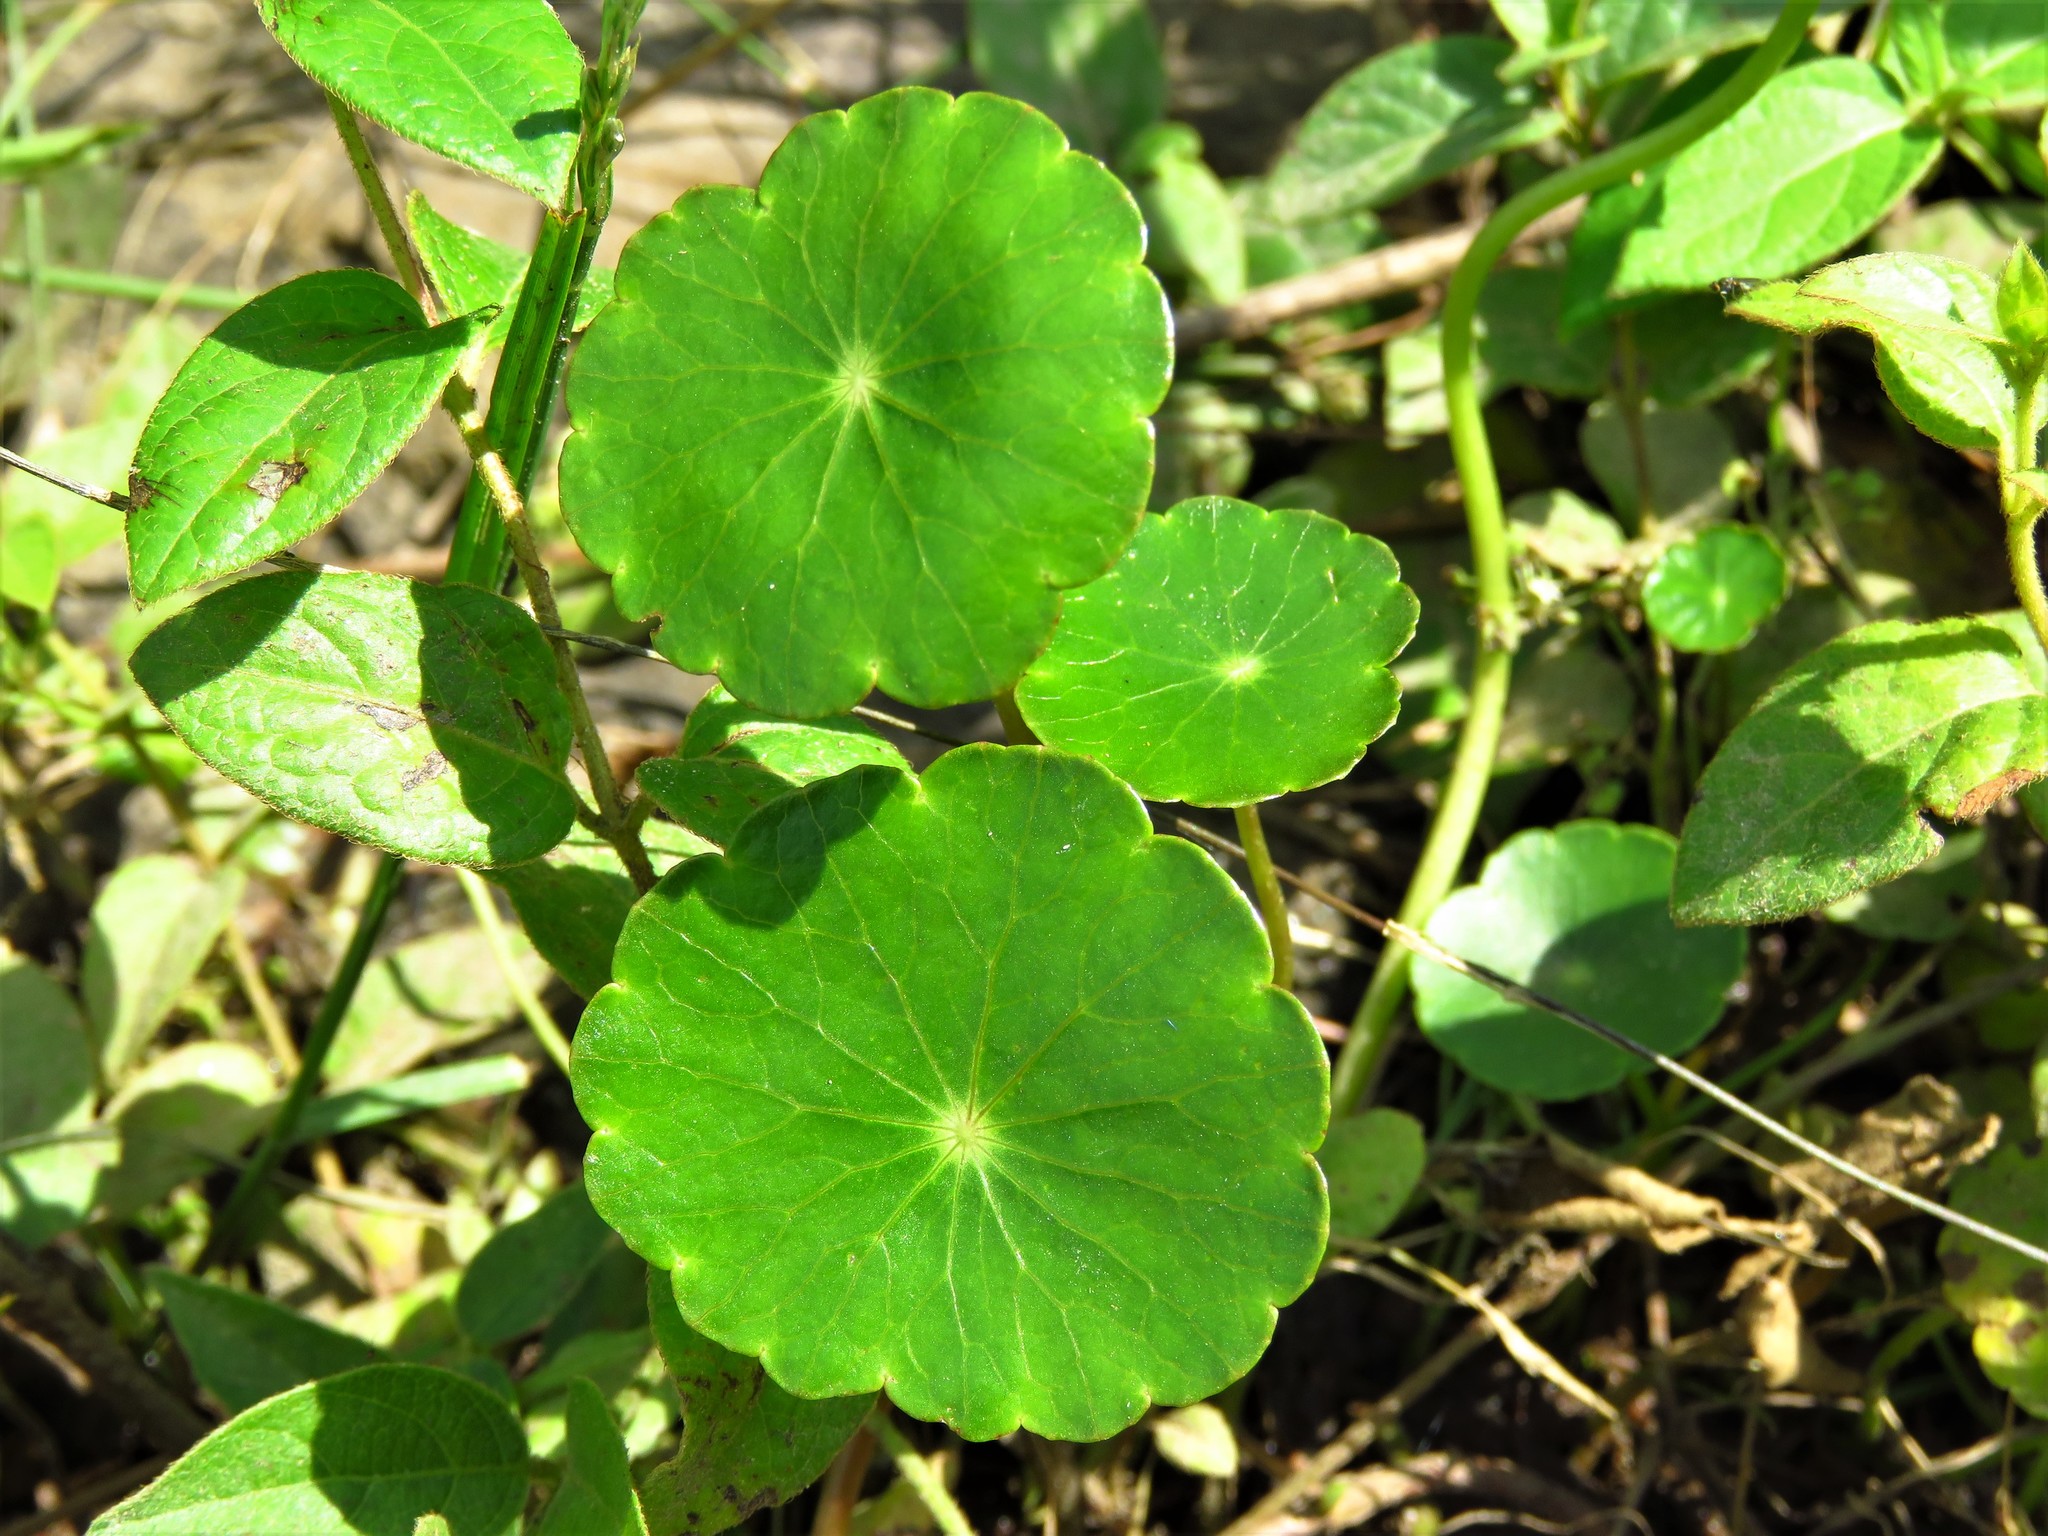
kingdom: Plantae
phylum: Tracheophyta
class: Magnoliopsida
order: Apiales
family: Araliaceae
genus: Hydrocotyle
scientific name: Hydrocotyle umbellata
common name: Water pennywort
